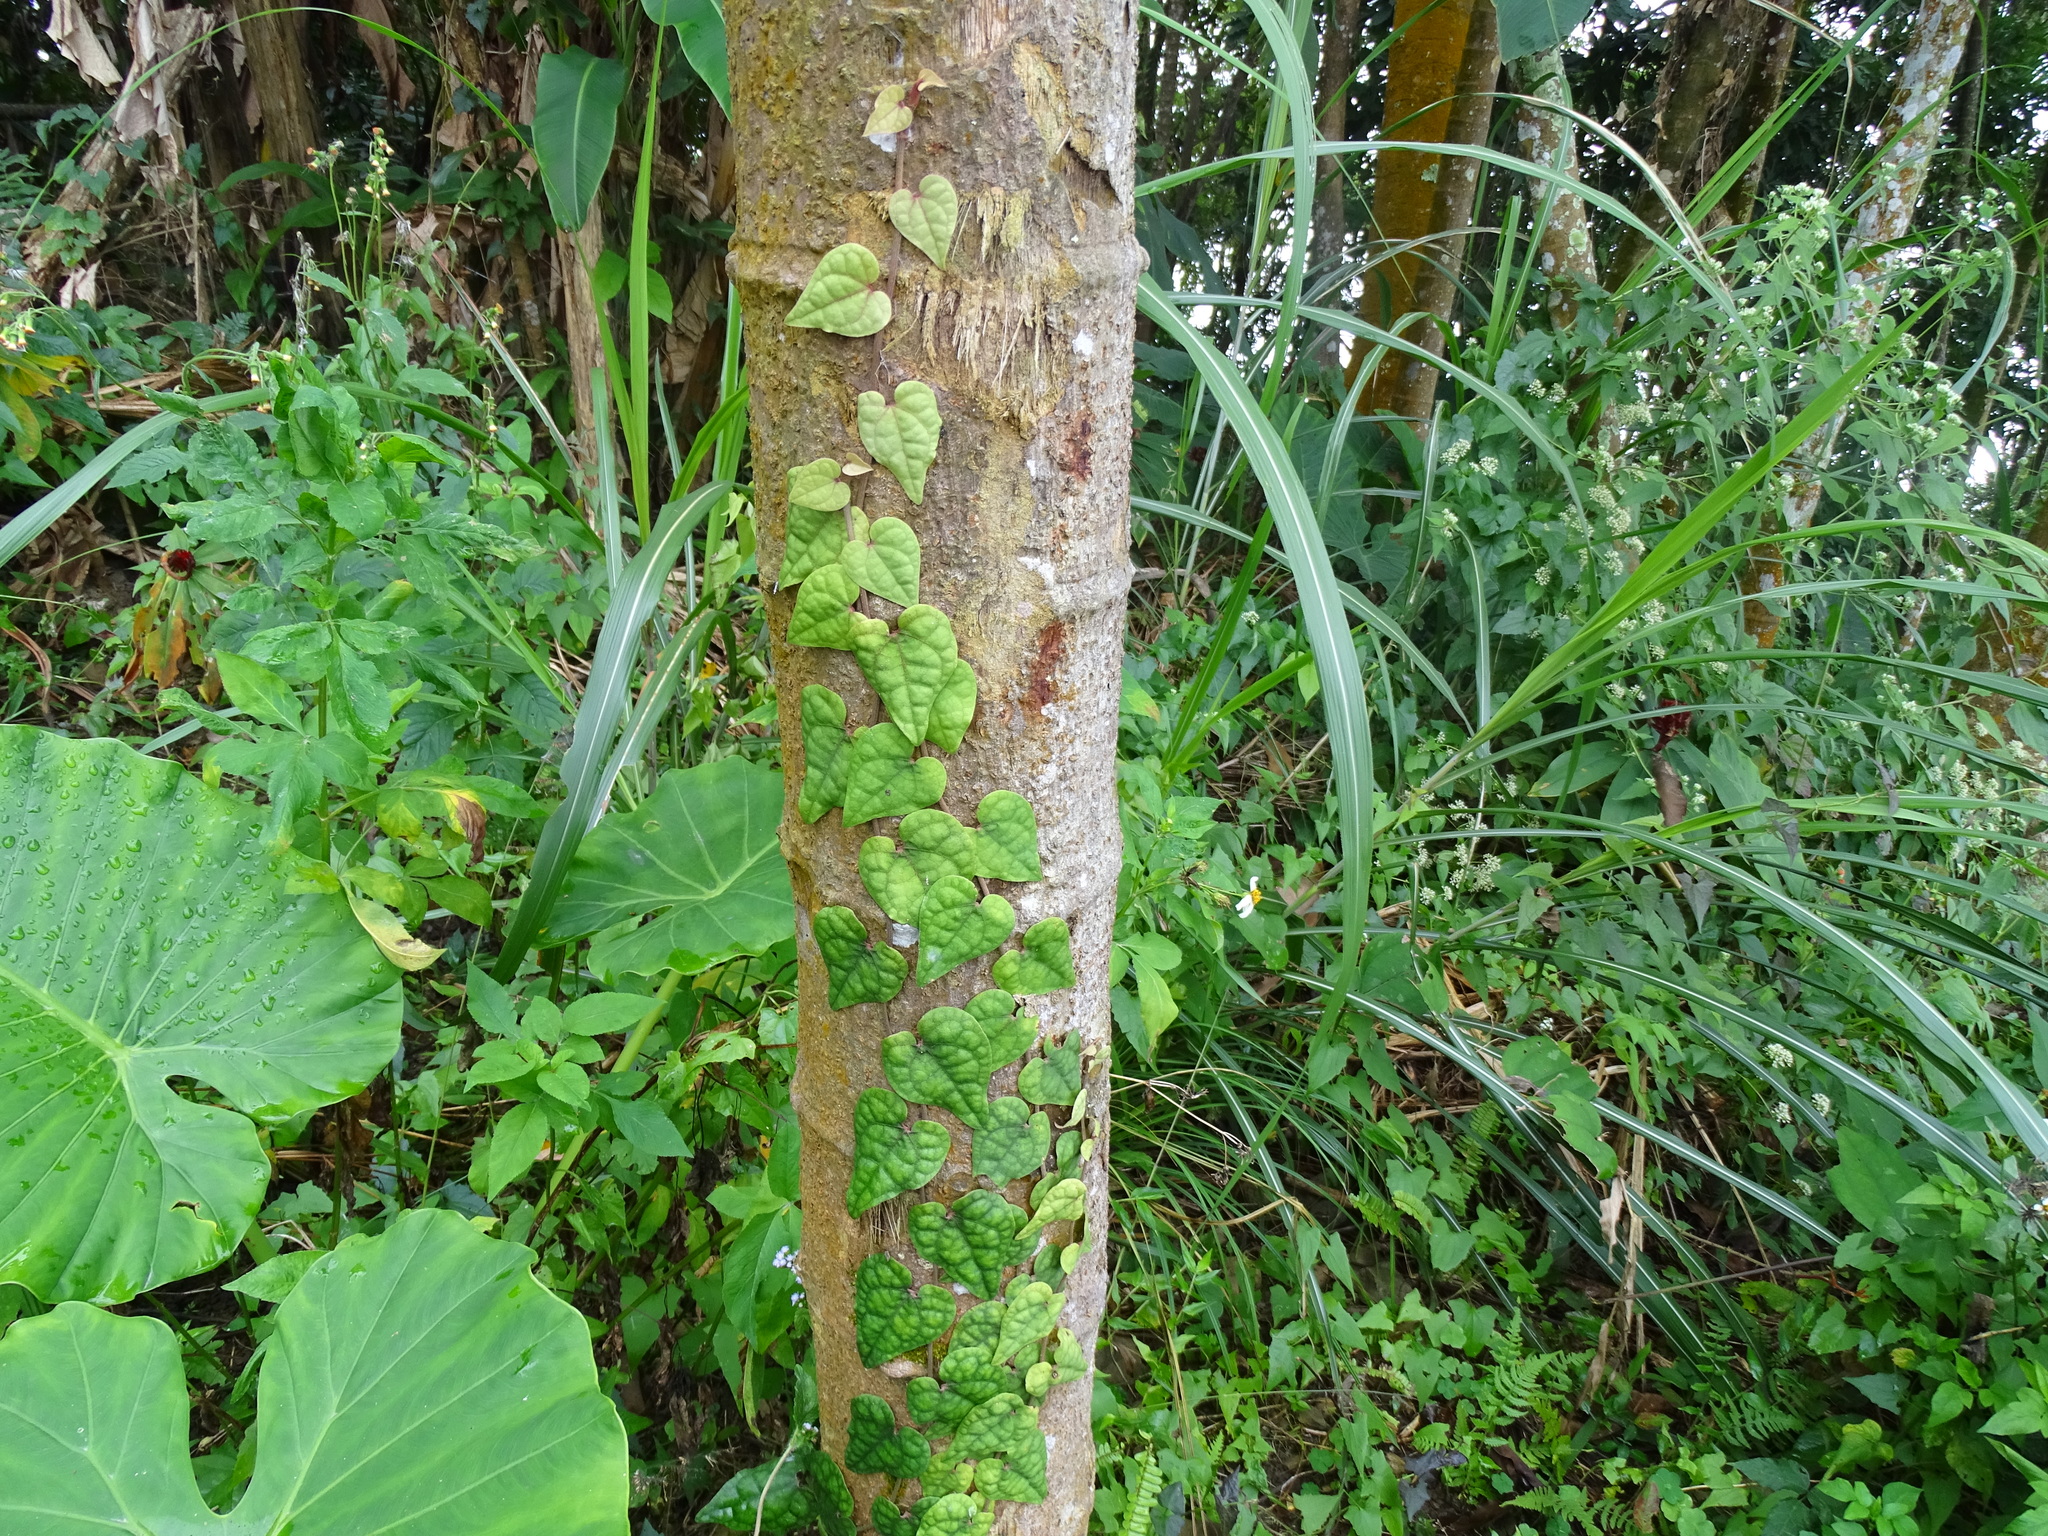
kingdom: Plantae
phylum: Tracheophyta
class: Magnoliopsida
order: Piperales
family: Piperaceae
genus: Piper
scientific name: Piper taiwanense
